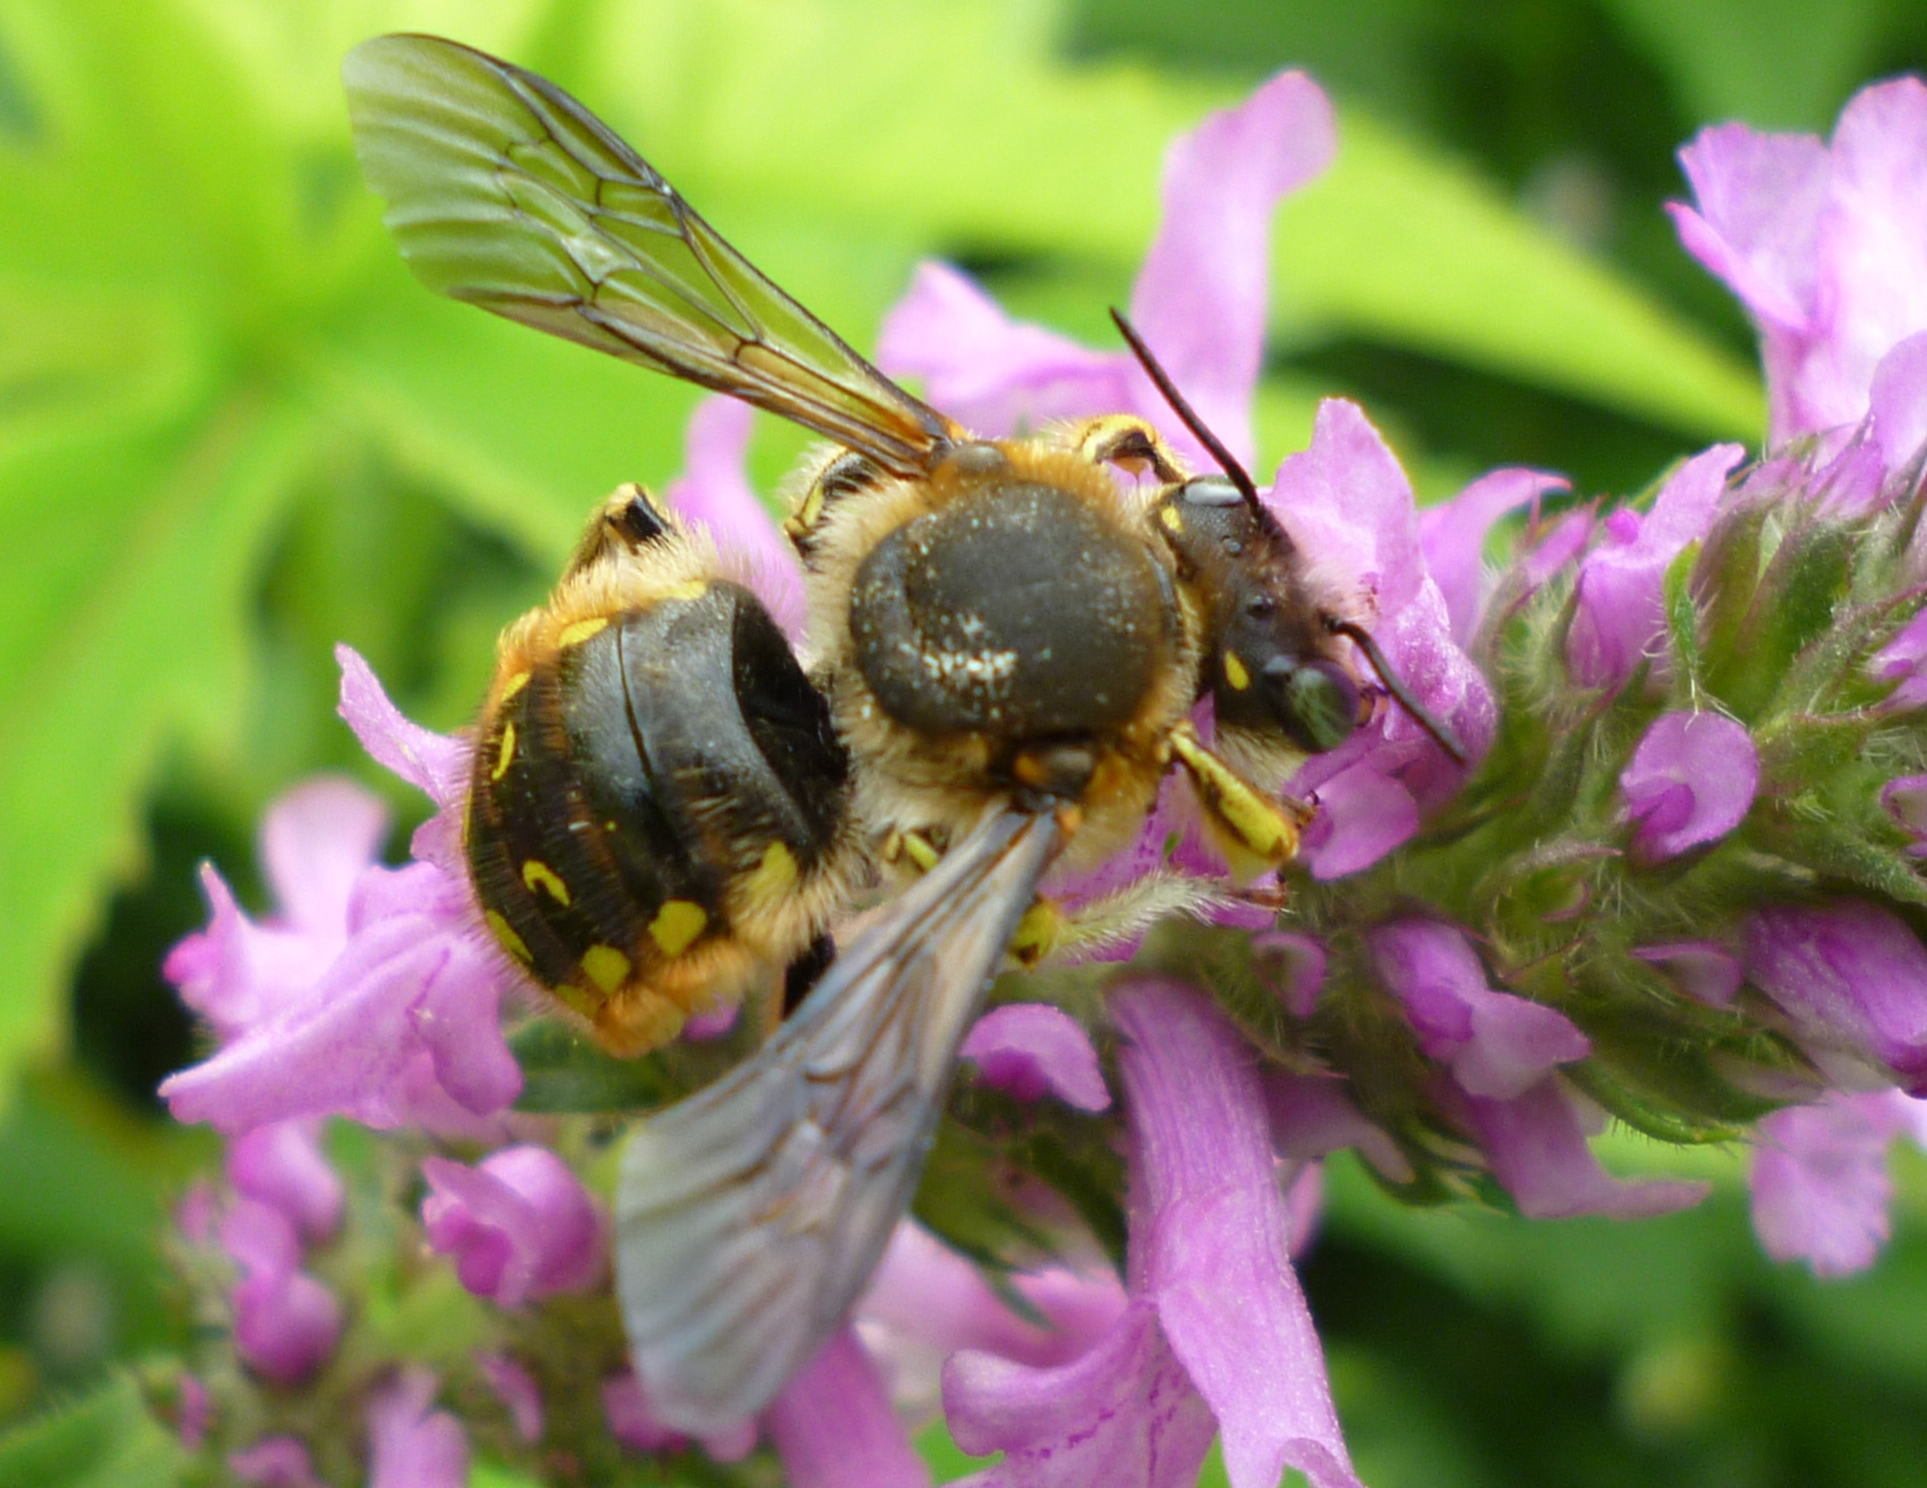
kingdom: Animalia
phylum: Arthropoda
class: Insecta
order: Hymenoptera
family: Megachilidae
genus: Anthidium
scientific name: Anthidium manicatum
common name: Wool carder bee
